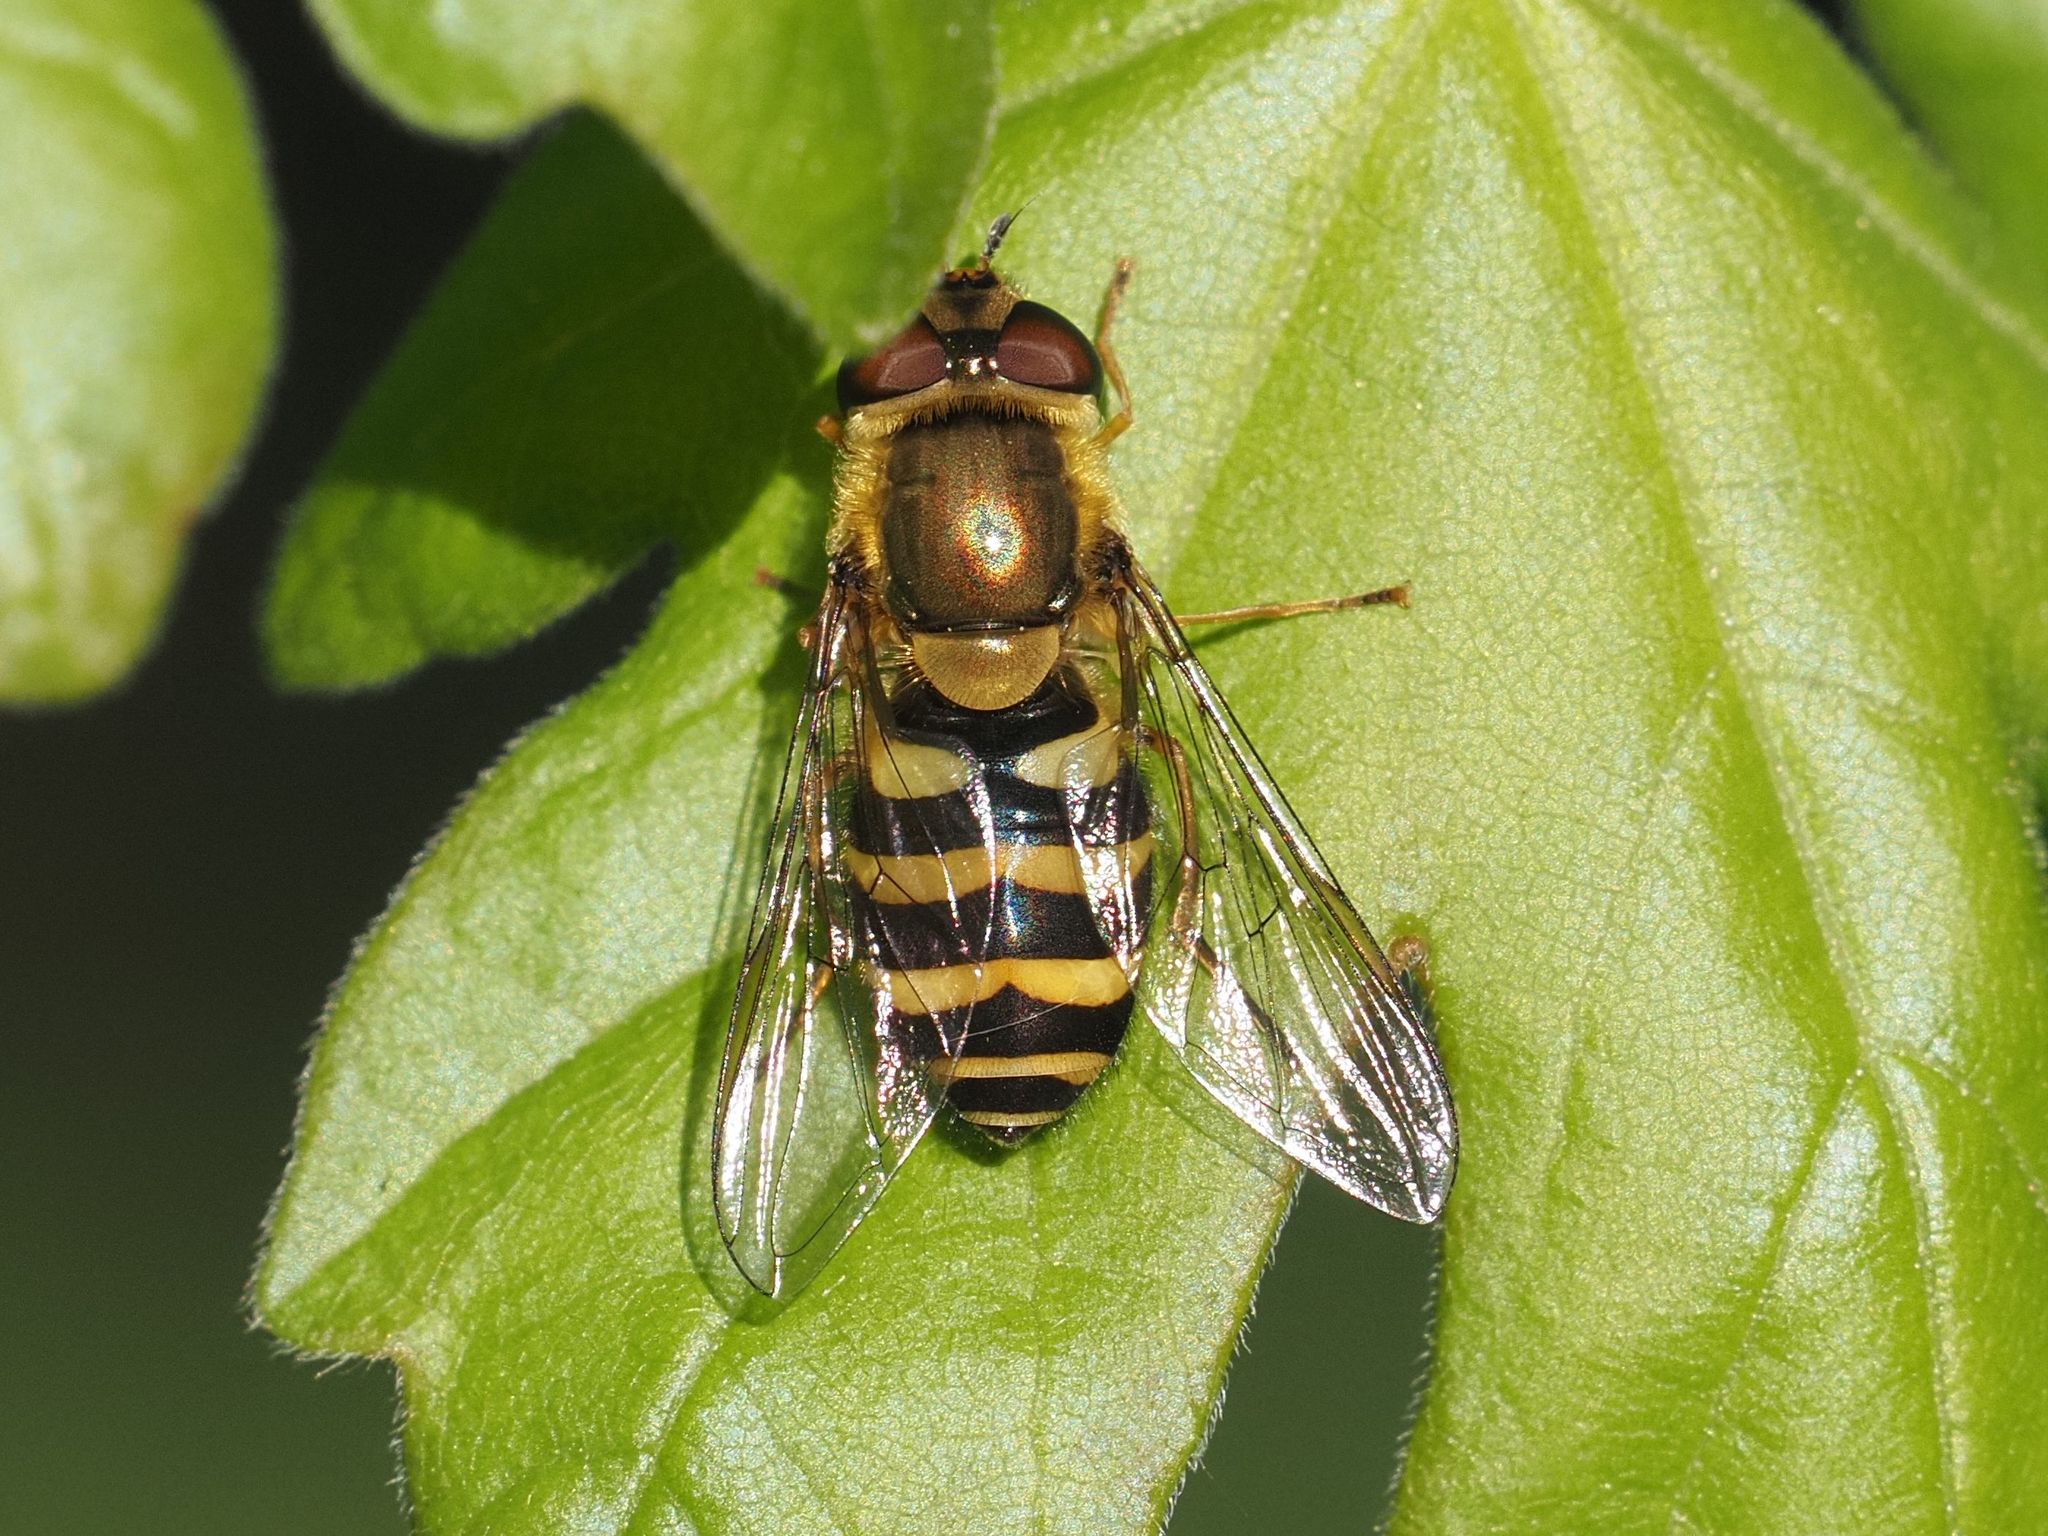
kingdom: Animalia
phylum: Arthropoda
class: Insecta
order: Diptera
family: Syrphidae
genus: Syrphus
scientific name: Syrphus
